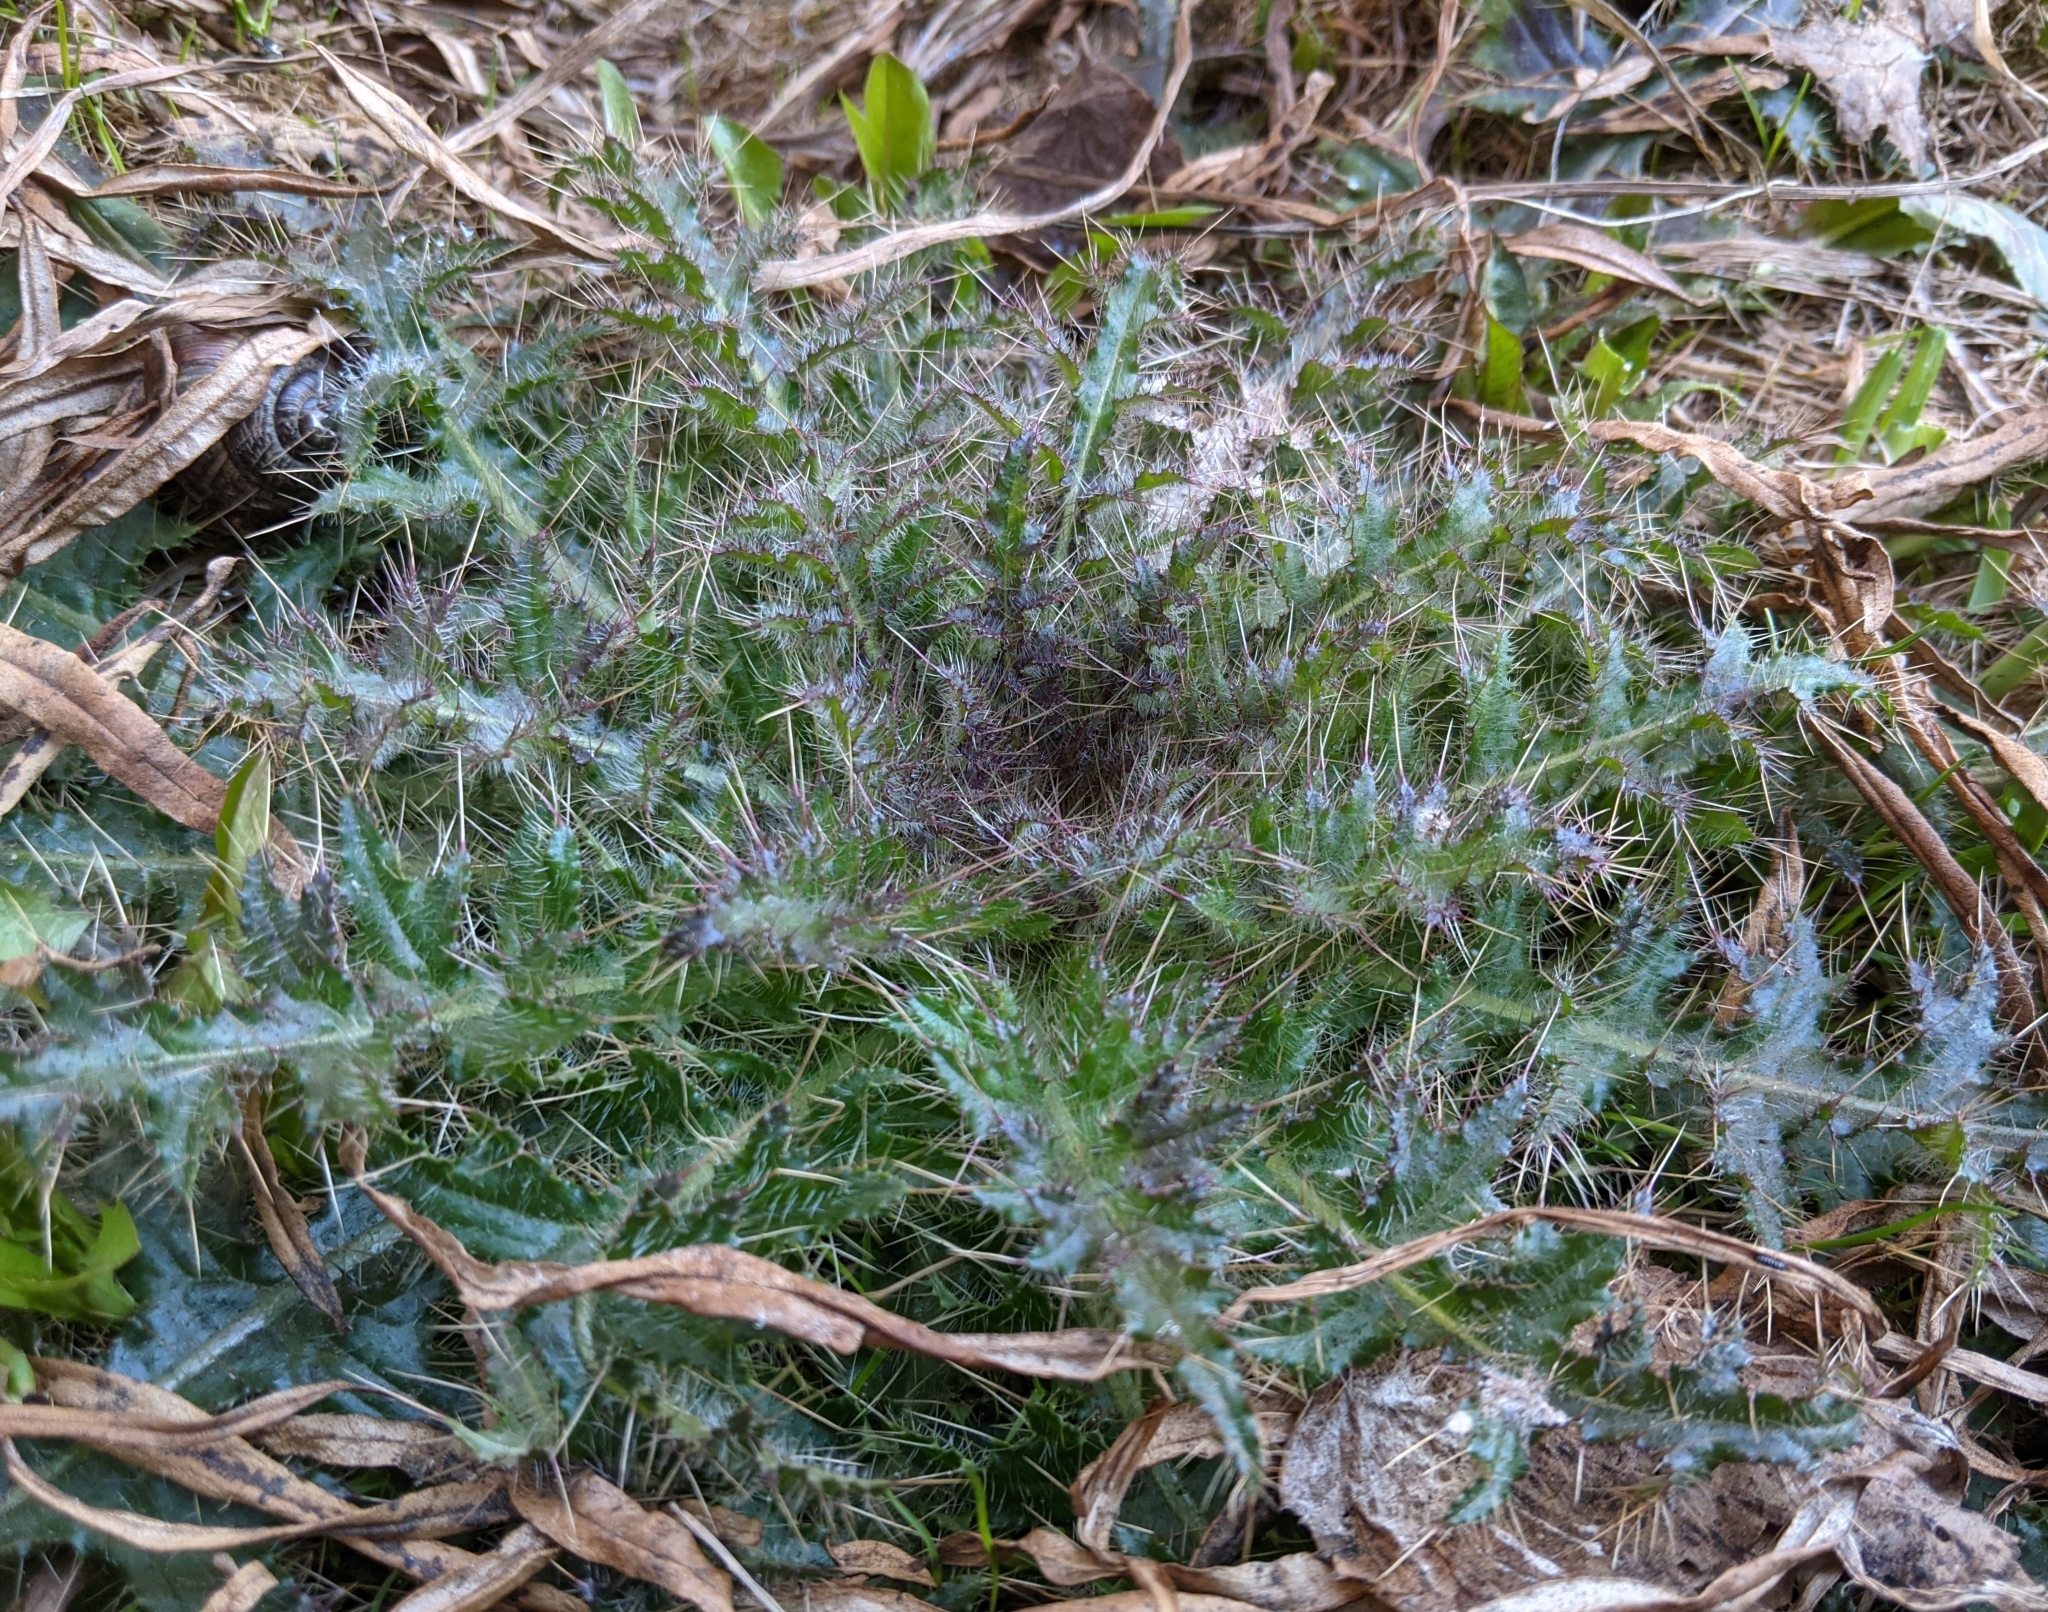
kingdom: Plantae
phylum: Tracheophyta
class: Magnoliopsida
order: Asterales
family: Asteraceae
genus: Cirsium
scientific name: Cirsium palustre
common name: Marsh thistle
